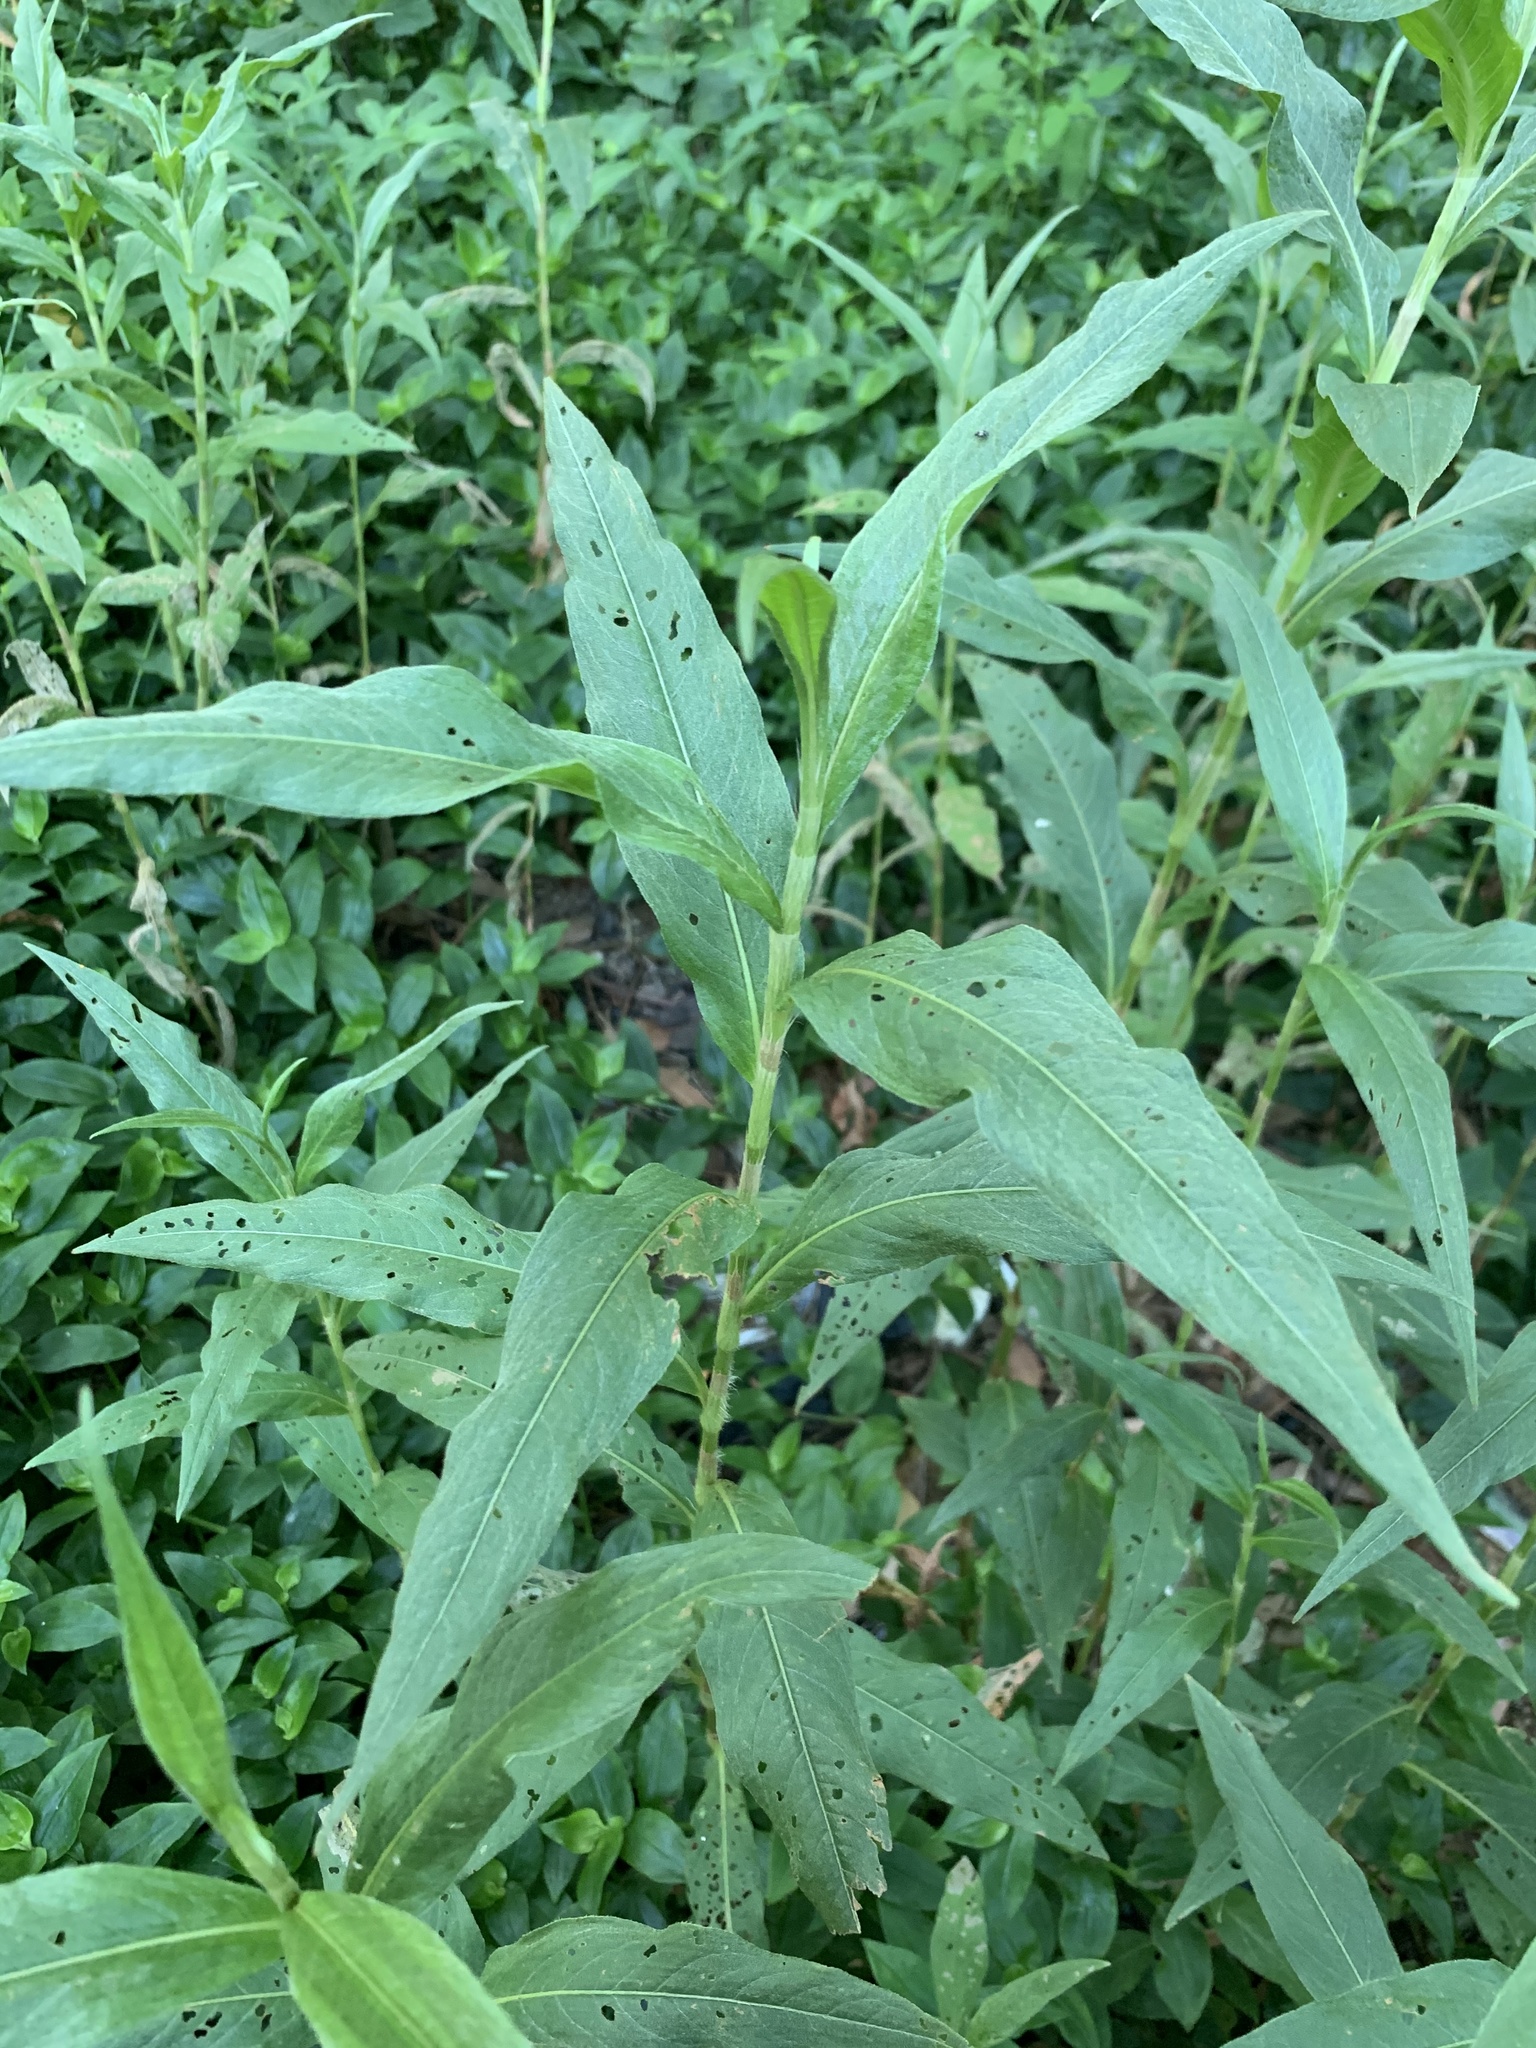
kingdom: Plantae
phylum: Tracheophyta
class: Magnoliopsida
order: Caryophyllales
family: Polygonaceae
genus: Persicaria
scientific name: Persicaria madagascariensis
